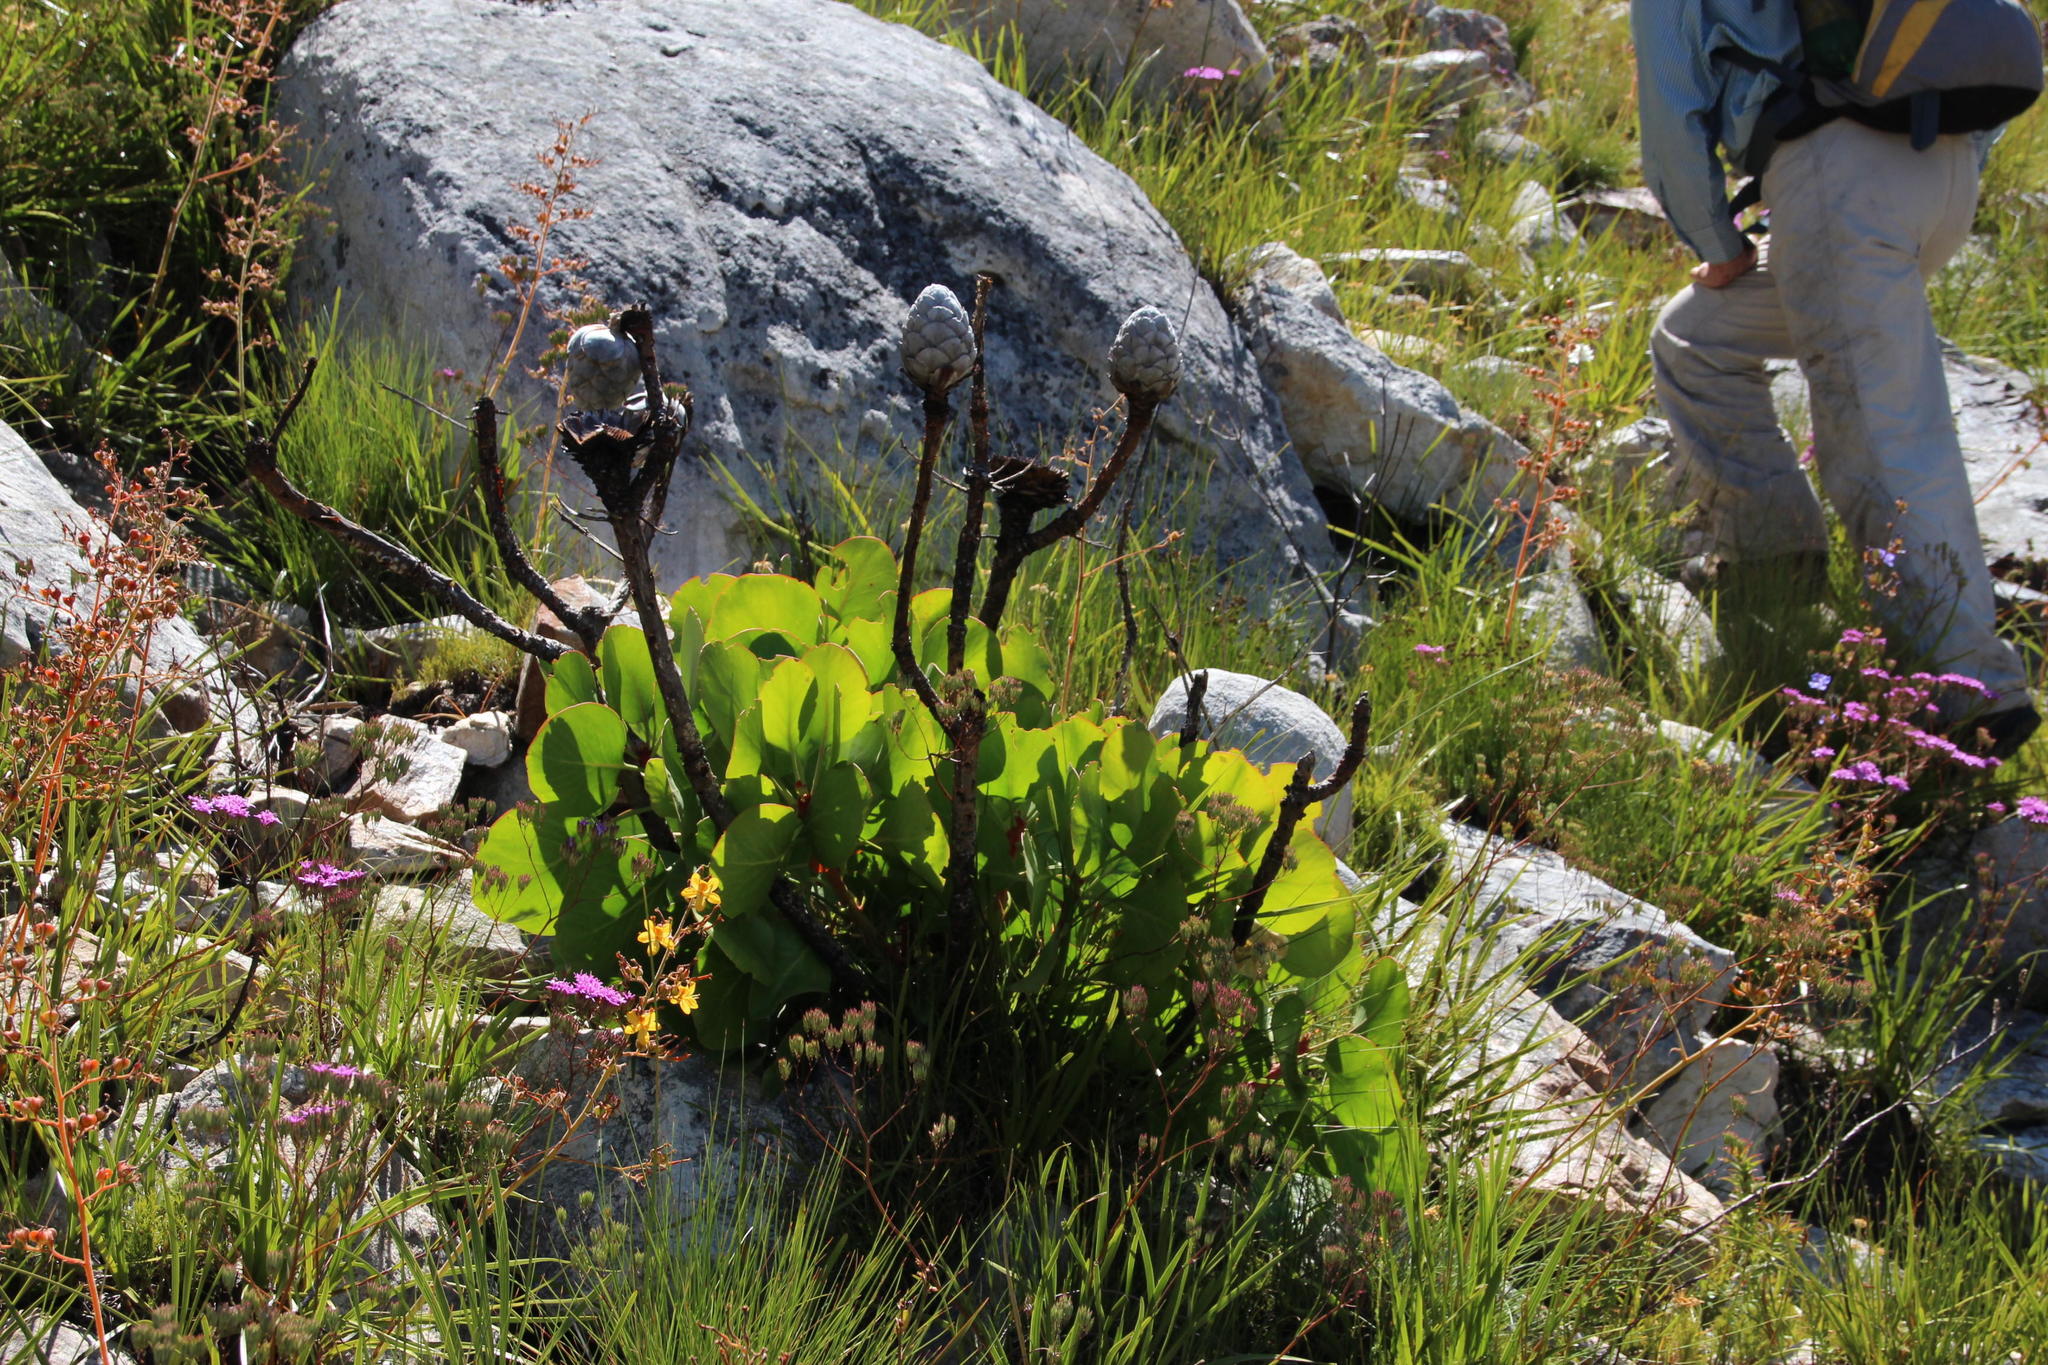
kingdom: Plantae
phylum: Tracheophyta
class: Magnoliopsida
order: Proteales
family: Proteaceae
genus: Protea
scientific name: Protea cynaroides
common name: King protea
